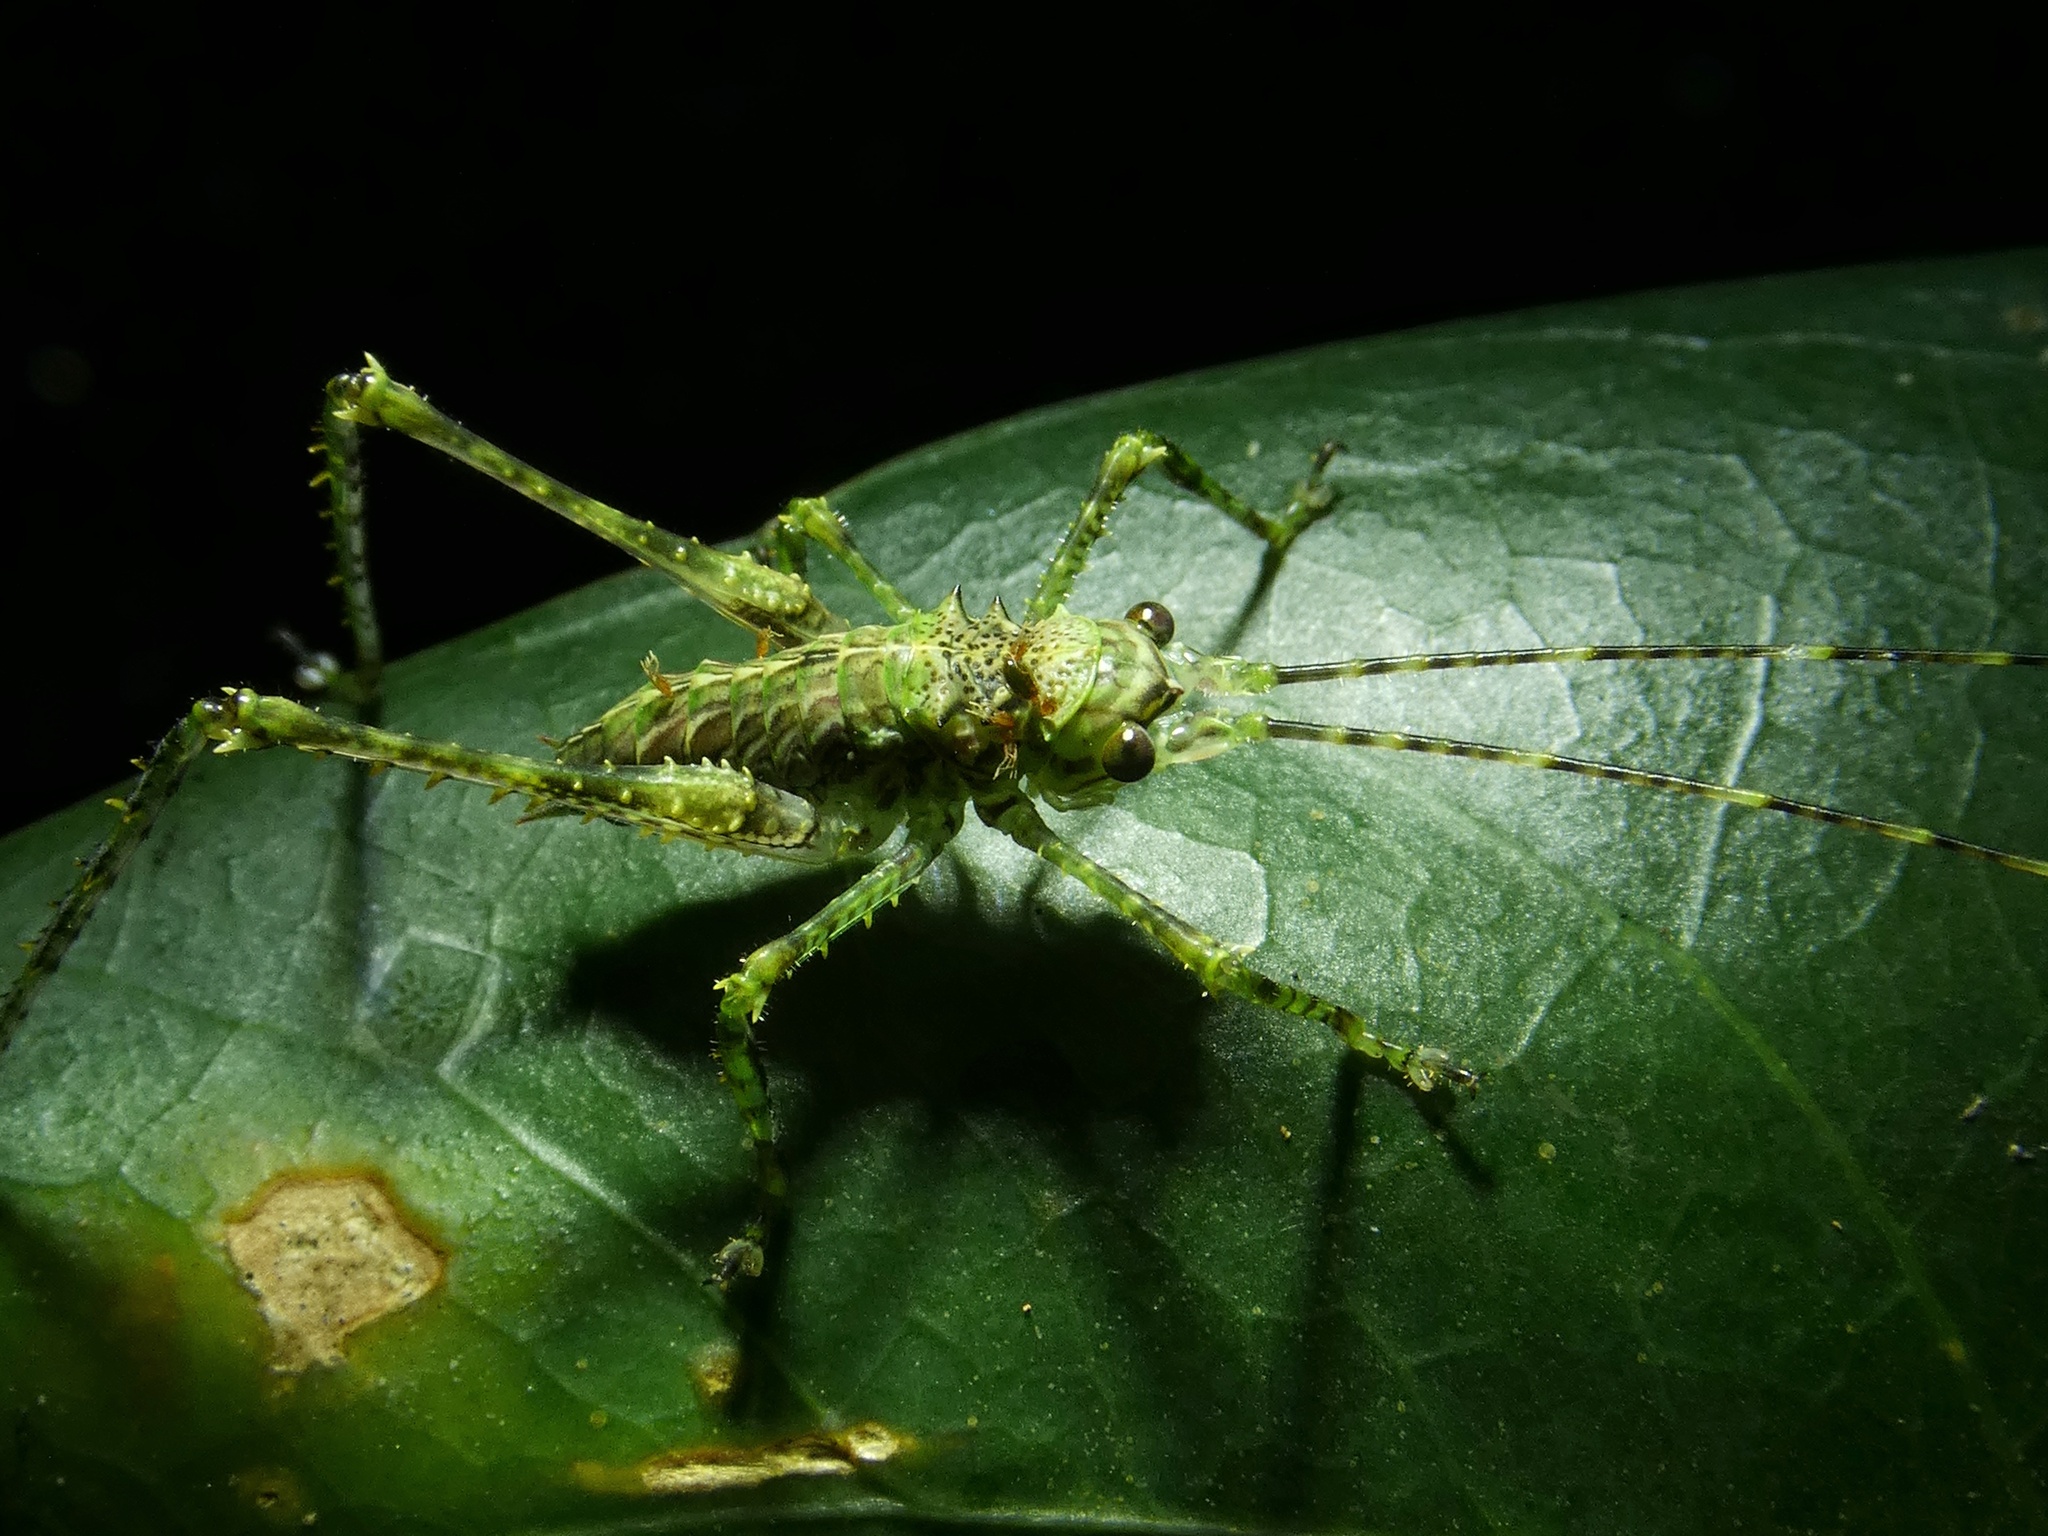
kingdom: Animalia
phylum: Arthropoda
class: Insecta
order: Orthoptera
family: Tettigoniidae
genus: Phricta
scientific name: Phricta spinosa
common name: Giant spiny forest katydid
